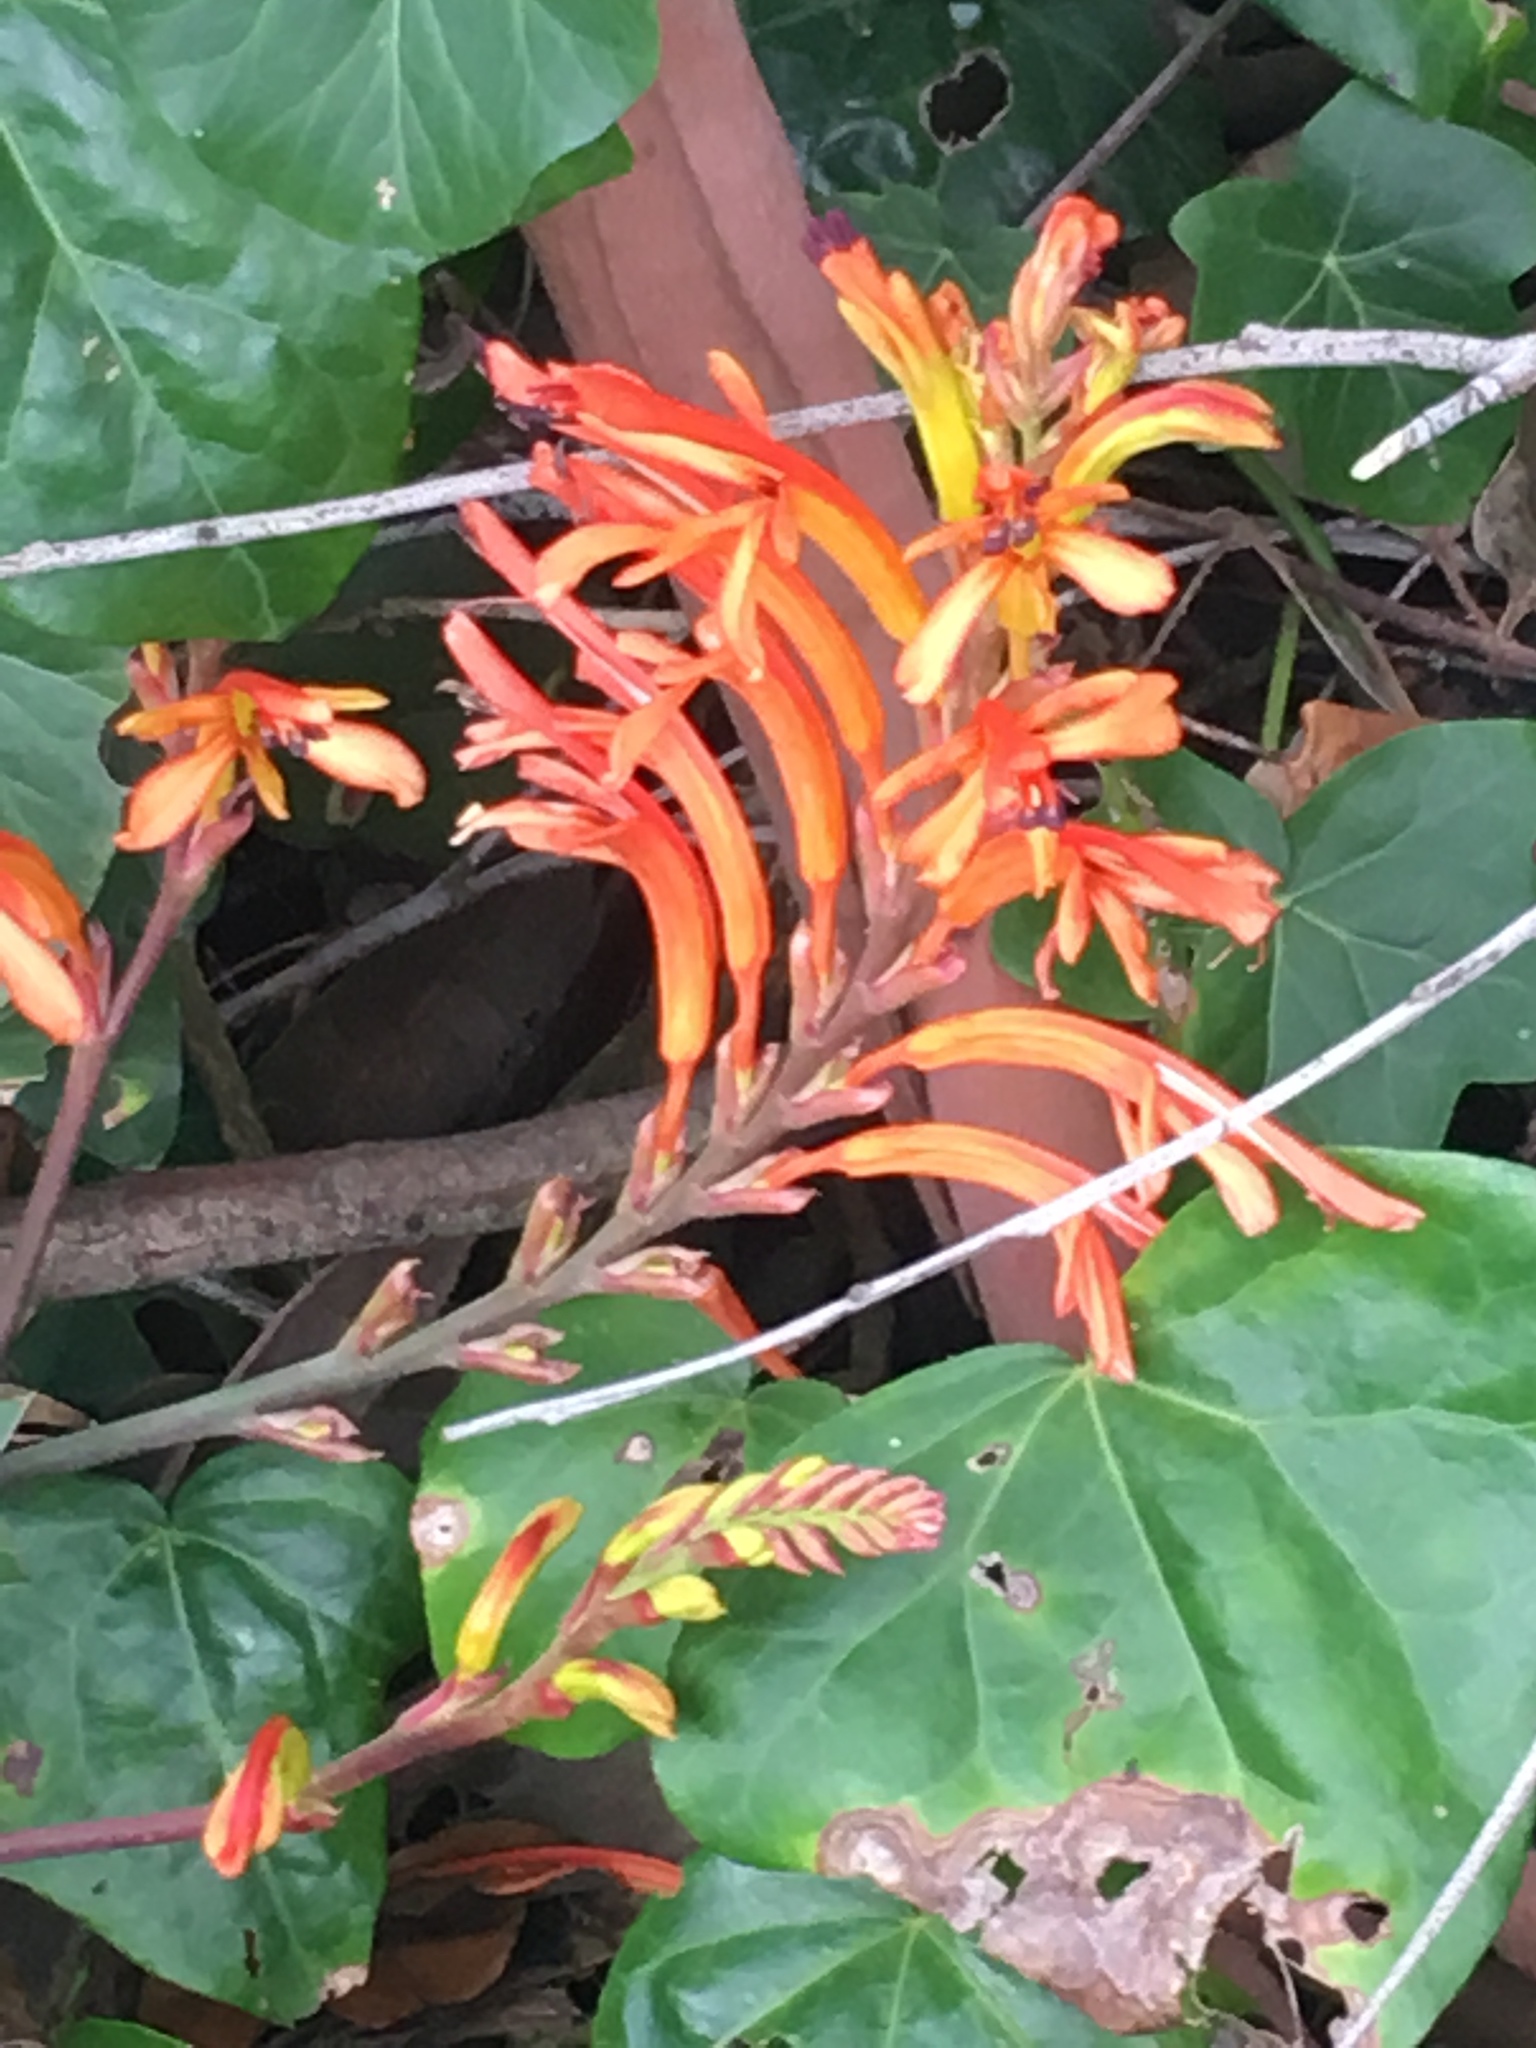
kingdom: Plantae
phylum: Tracheophyta
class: Liliopsida
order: Asparagales
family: Iridaceae
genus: Chasmanthe
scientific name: Chasmanthe floribunda
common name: African cornflag
